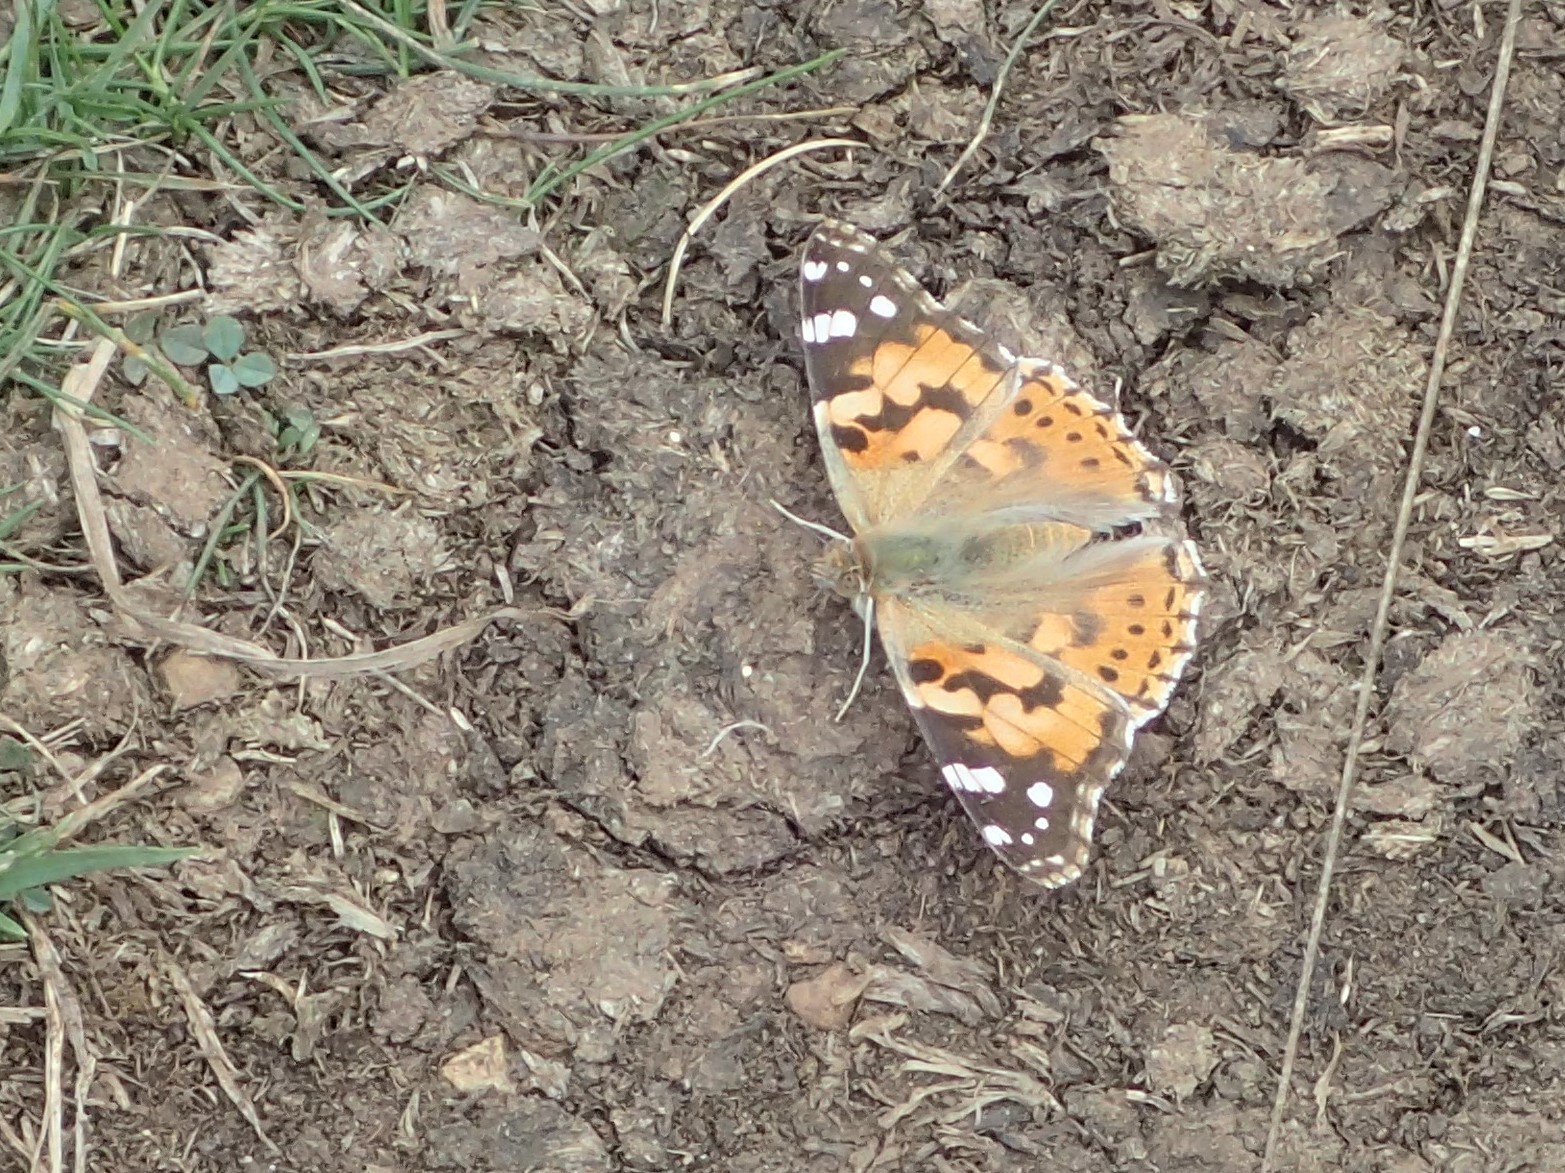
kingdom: Animalia
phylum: Arthropoda
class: Insecta
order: Lepidoptera
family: Nymphalidae
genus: Vanessa
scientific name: Vanessa cardui
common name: Painted lady
